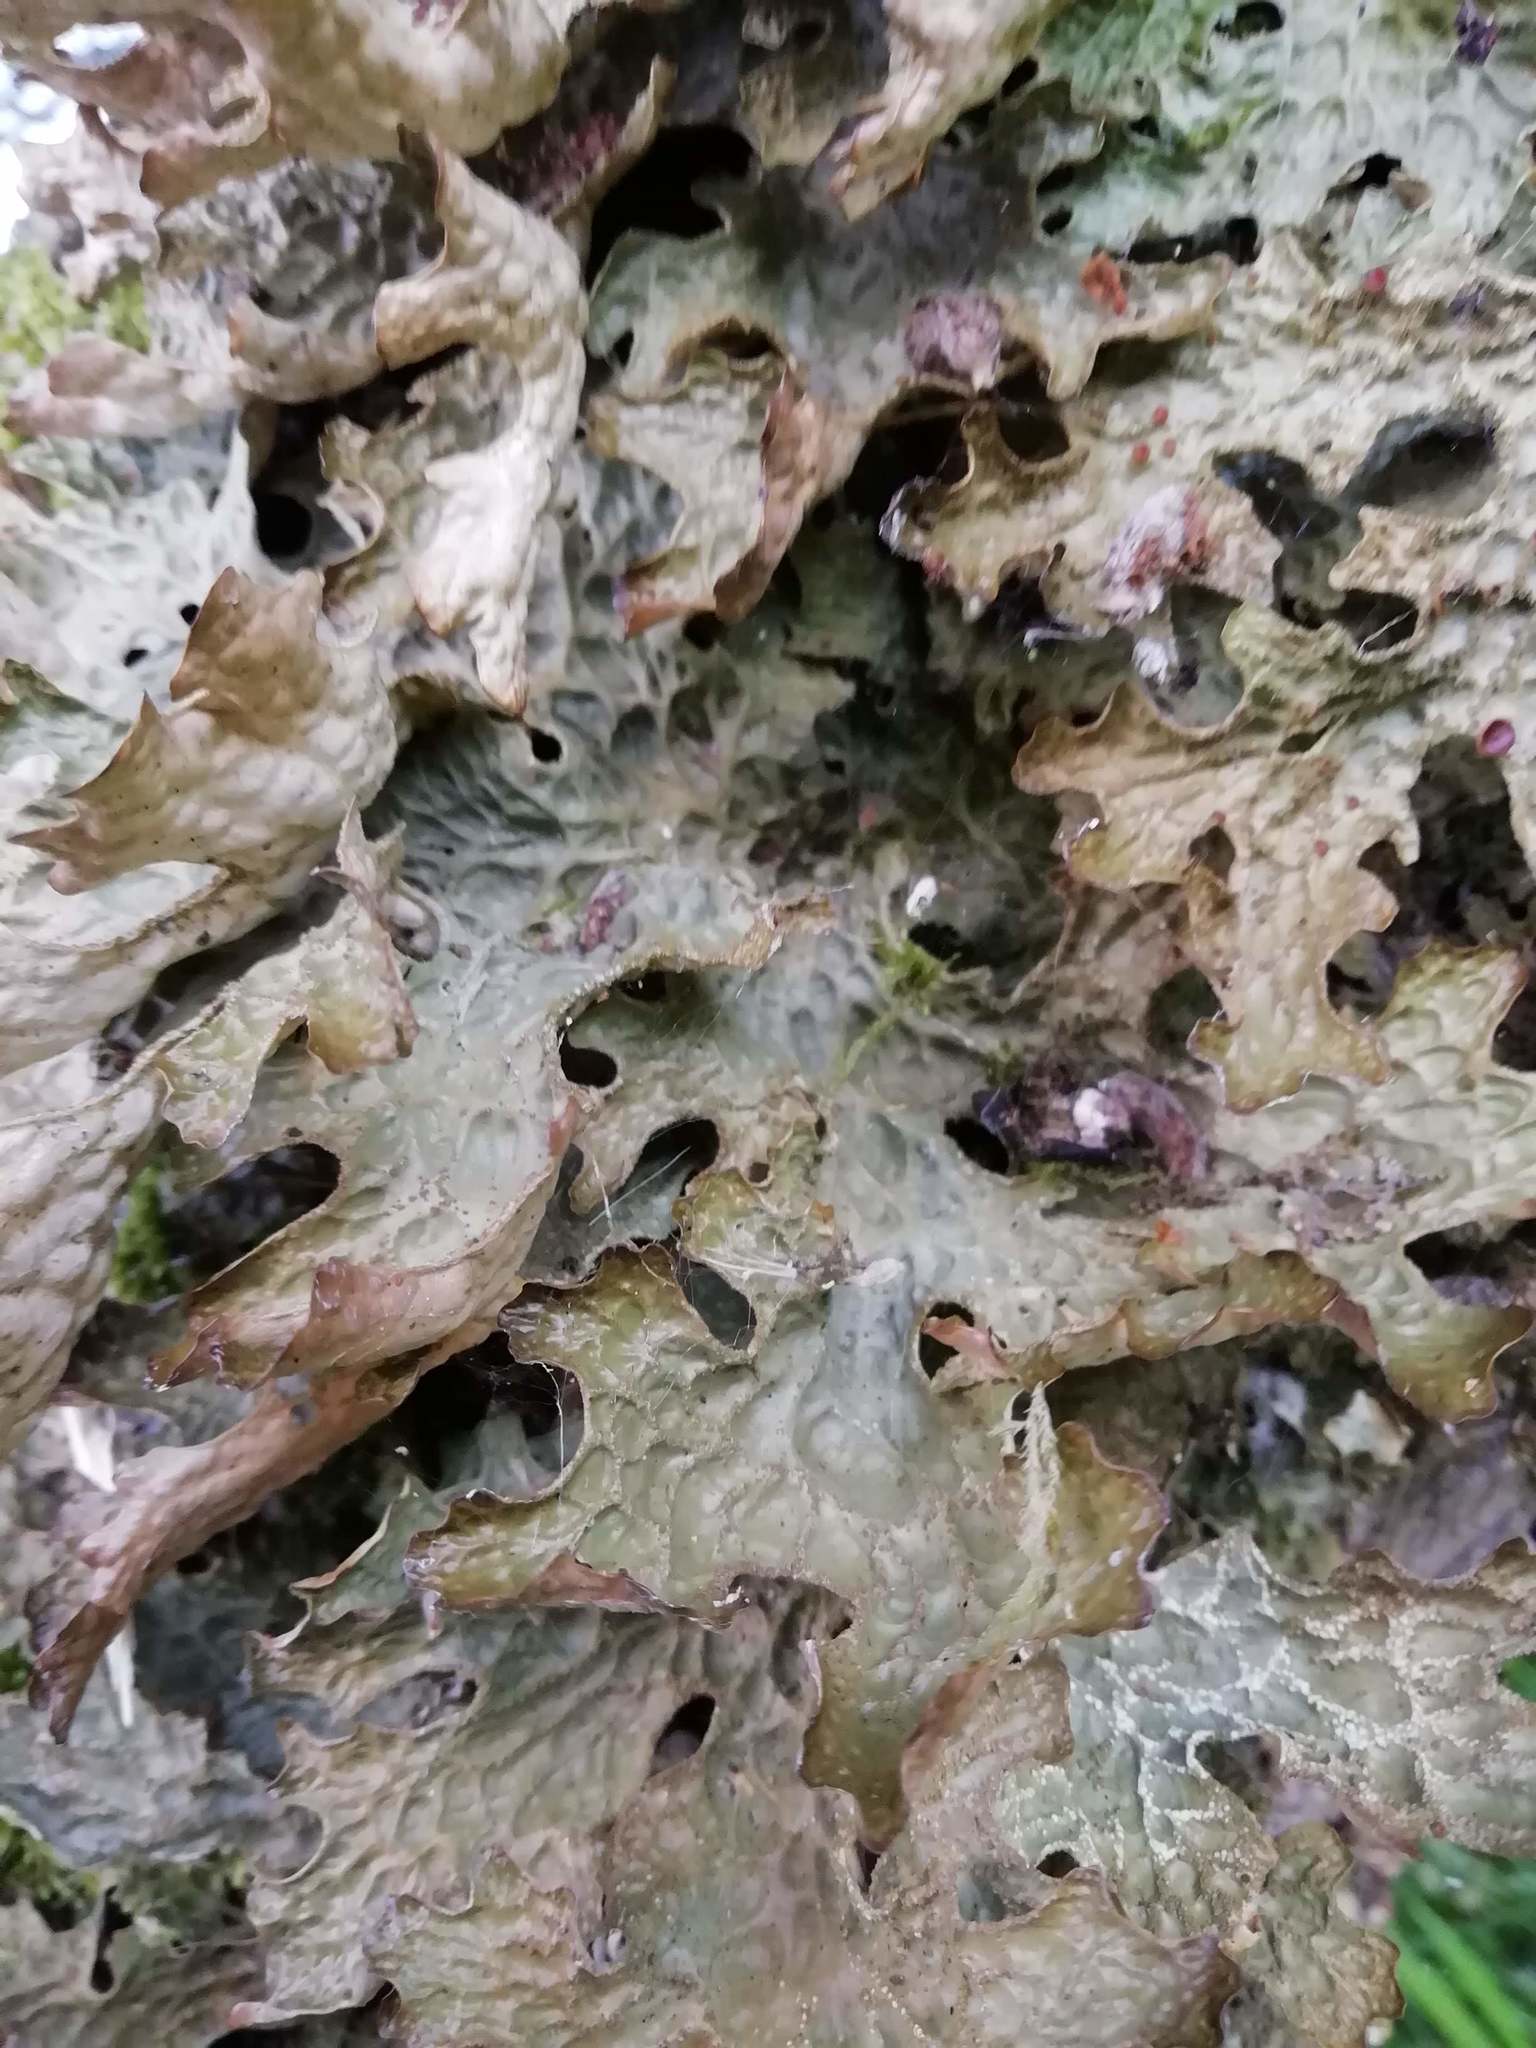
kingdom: Fungi
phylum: Ascomycota
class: Lecanoromycetes
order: Peltigerales
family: Lobariaceae
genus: Lobaria
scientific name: Lobaria pulmonaria
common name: Lungwort
